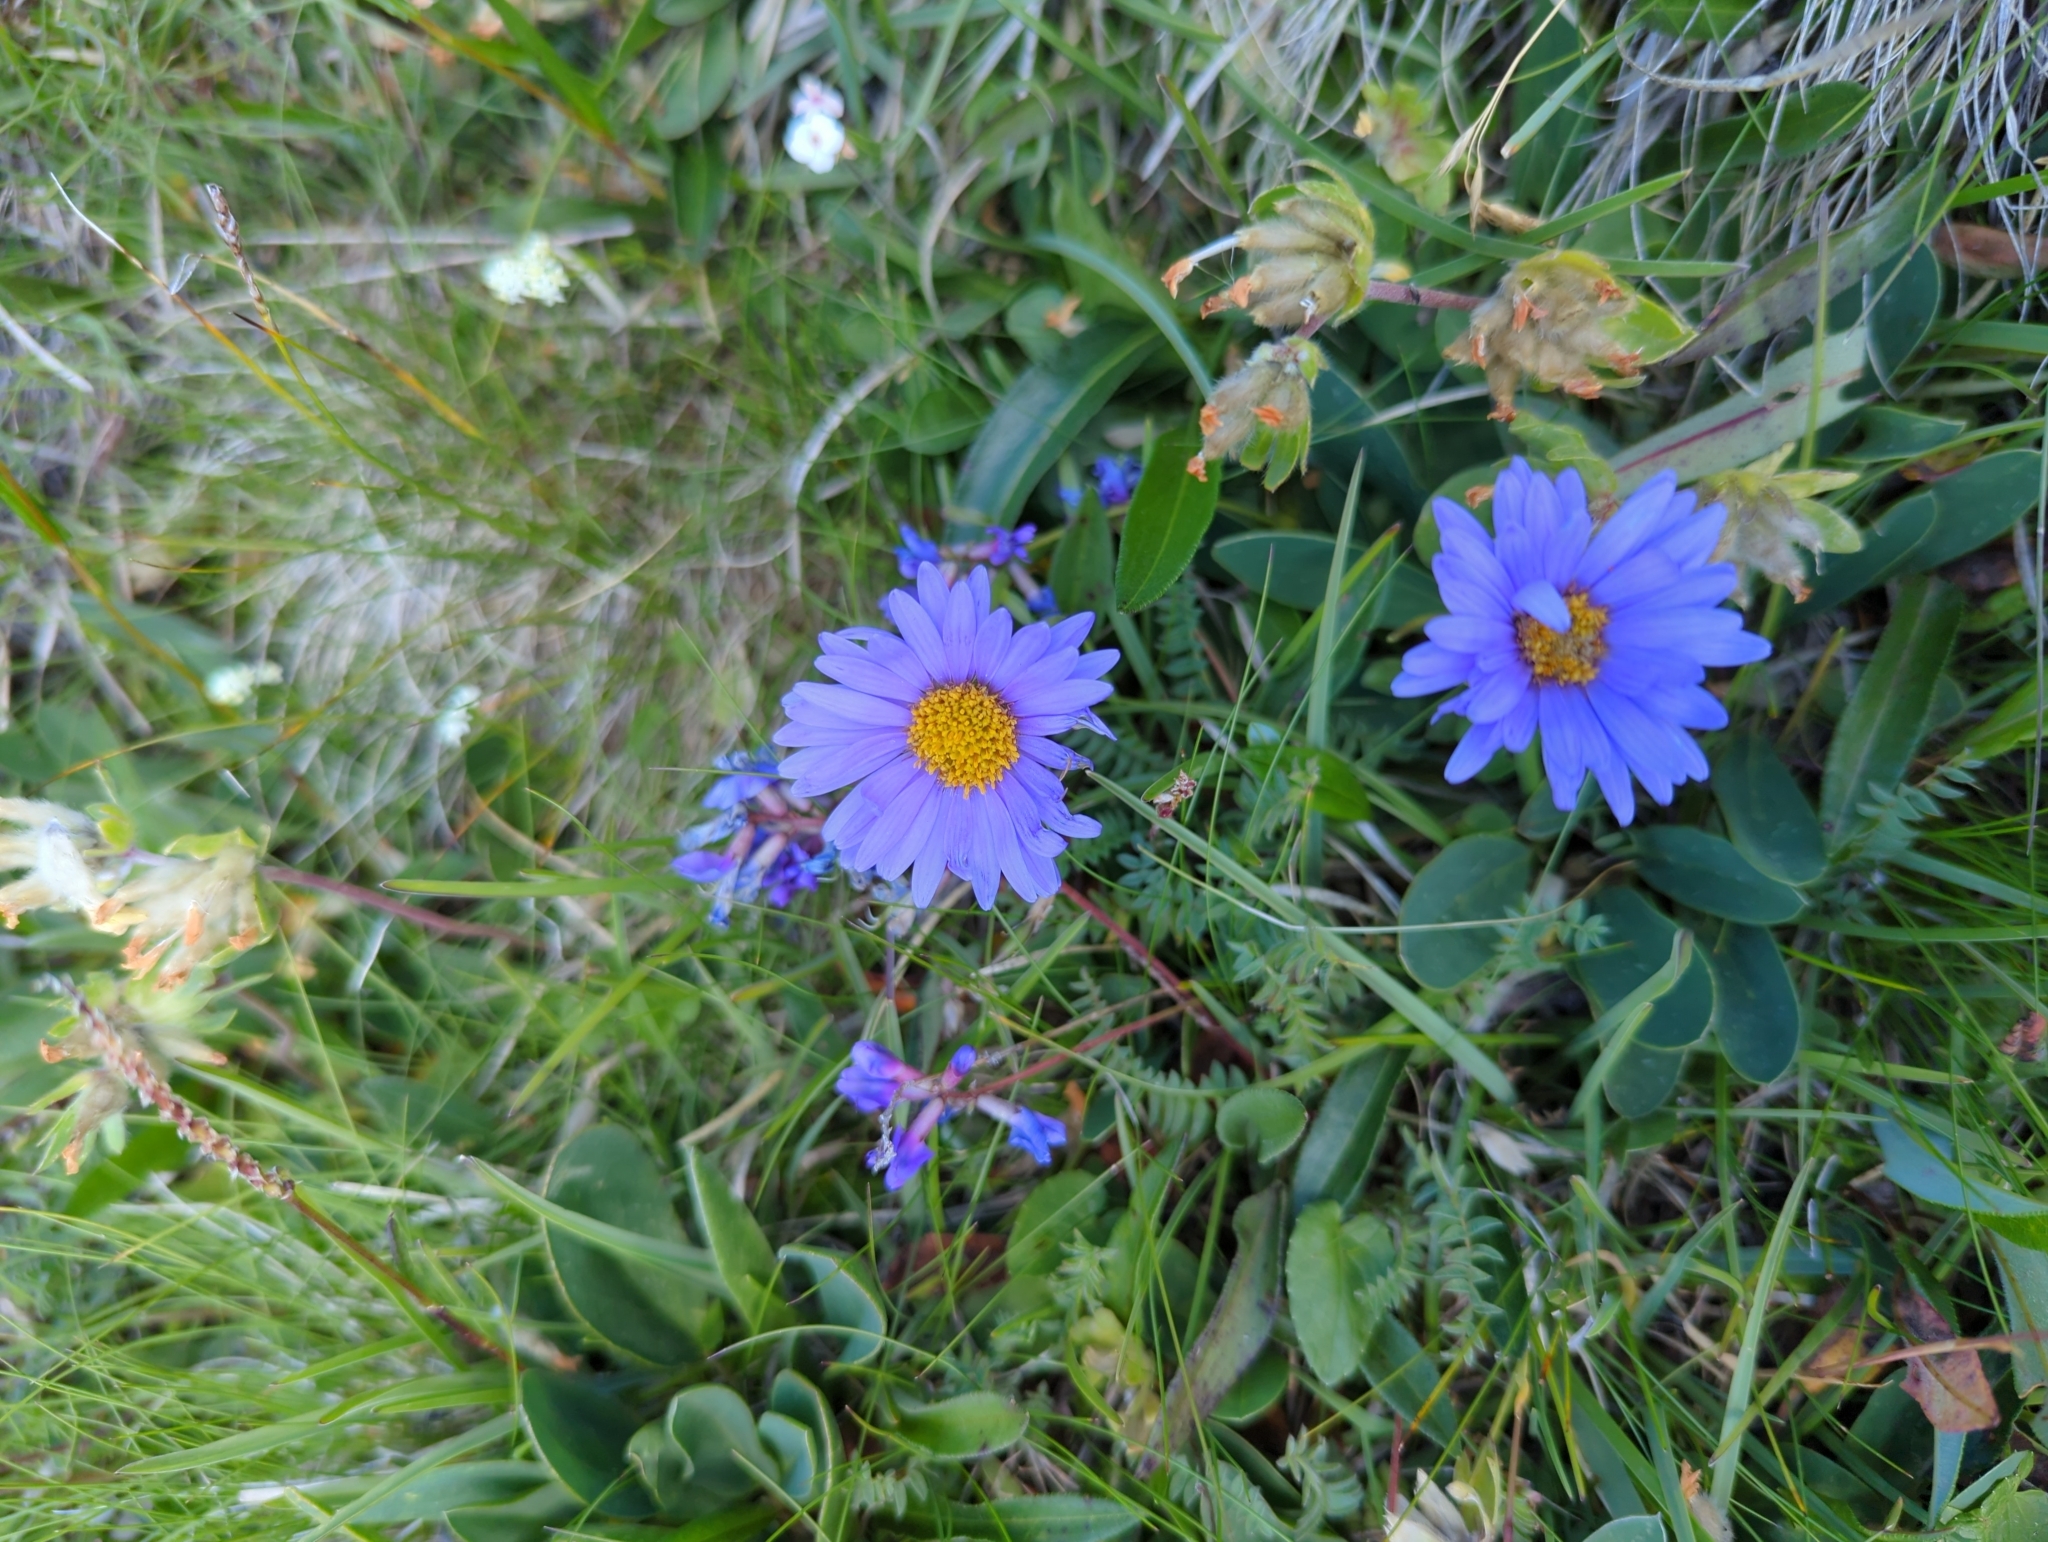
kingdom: Plantae
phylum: Tracheophyta
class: Magnoliopsida
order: Asterales
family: Asteraceae
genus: Aster
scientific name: Aster alpinus
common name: Alpine aster
